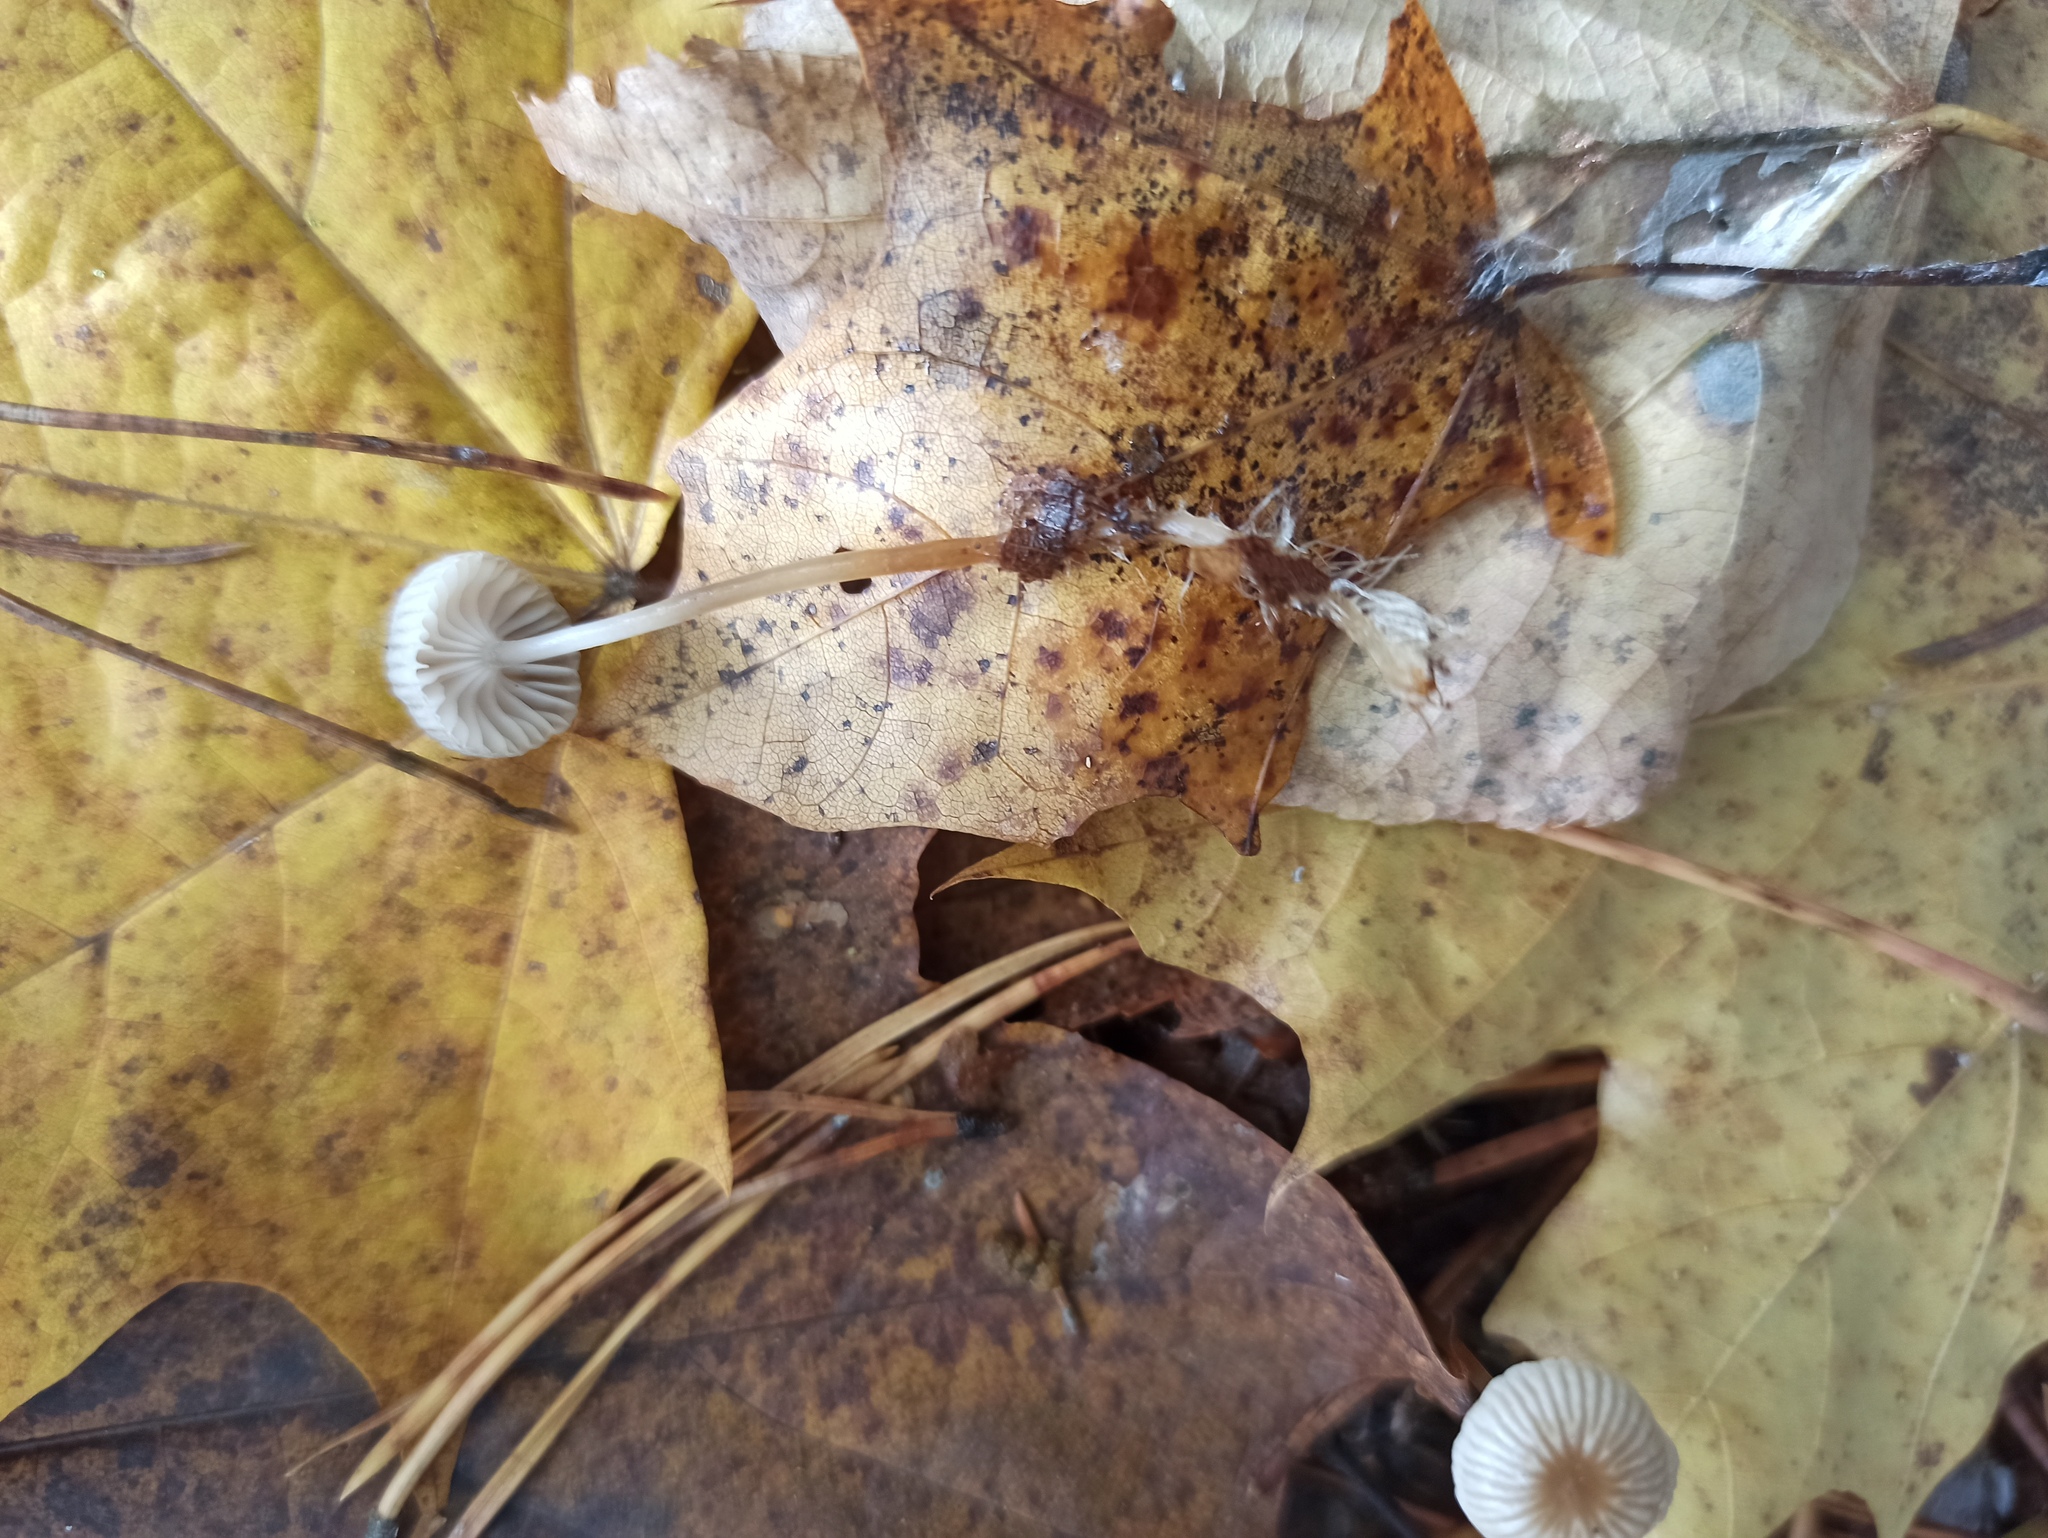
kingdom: Fungi
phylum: Basidiomycota
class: Agaricomycetes
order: Agaricales
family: Mycenaceae
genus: Mycena
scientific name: Mycena vulgaris
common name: Vulgar bonnet
